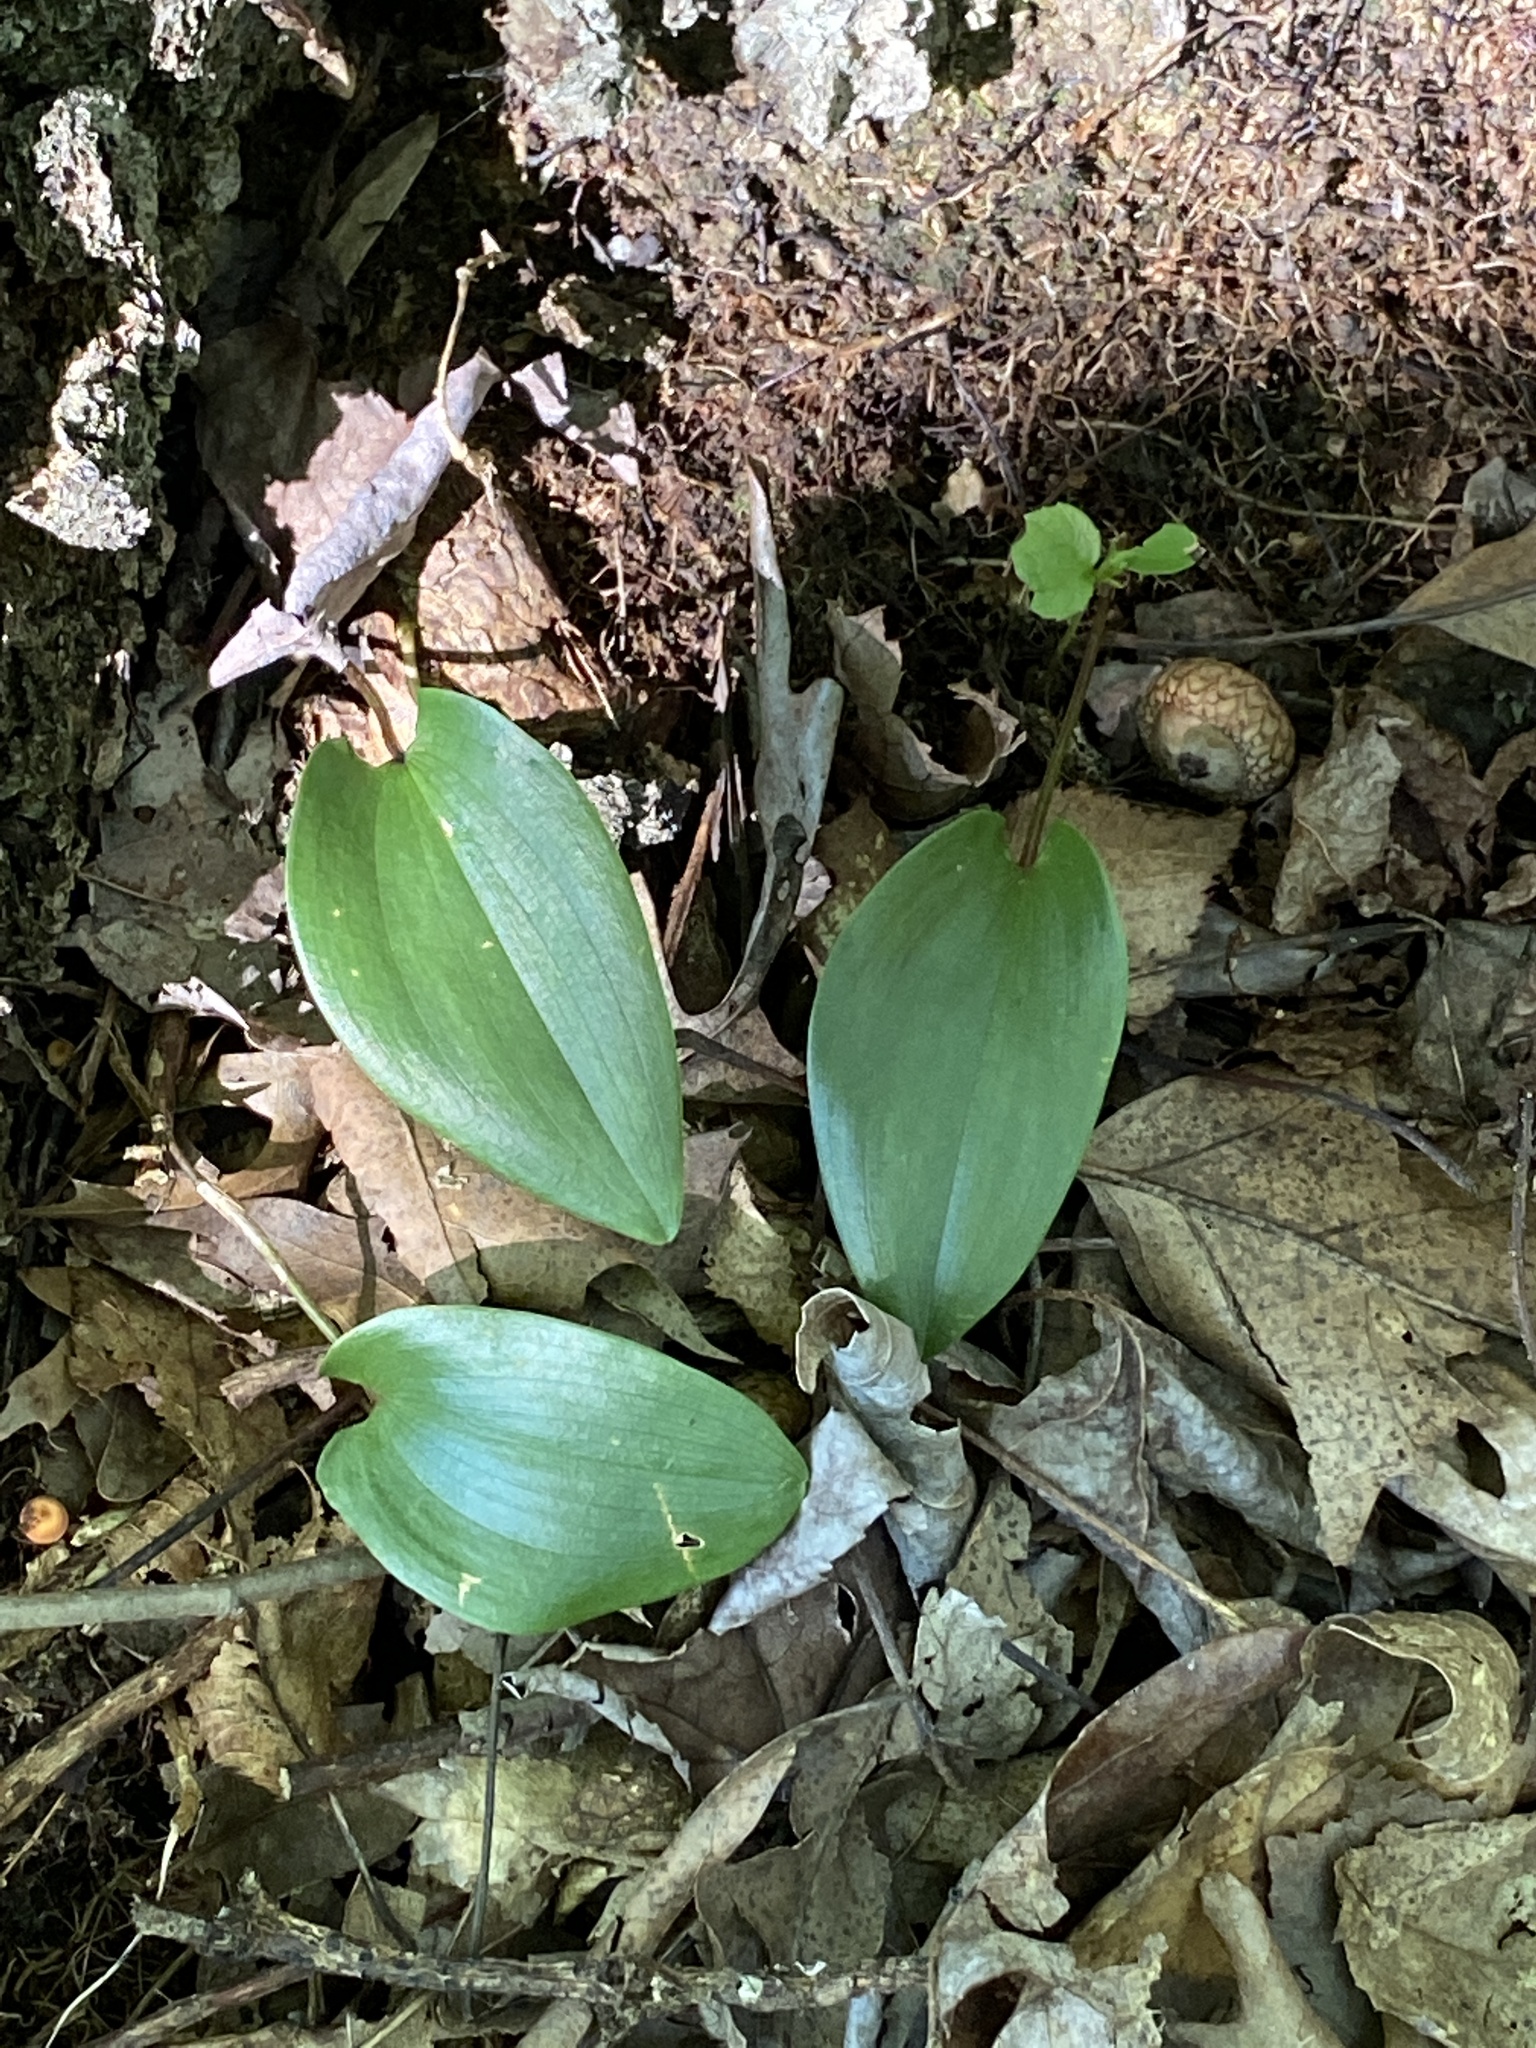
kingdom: Plantae
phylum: Tracheophyta
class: Liliopsida
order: Asparagales
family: Asparagaceae
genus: Maianthemum
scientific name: Maianthemum canadense
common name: False lily-of-the-valley
